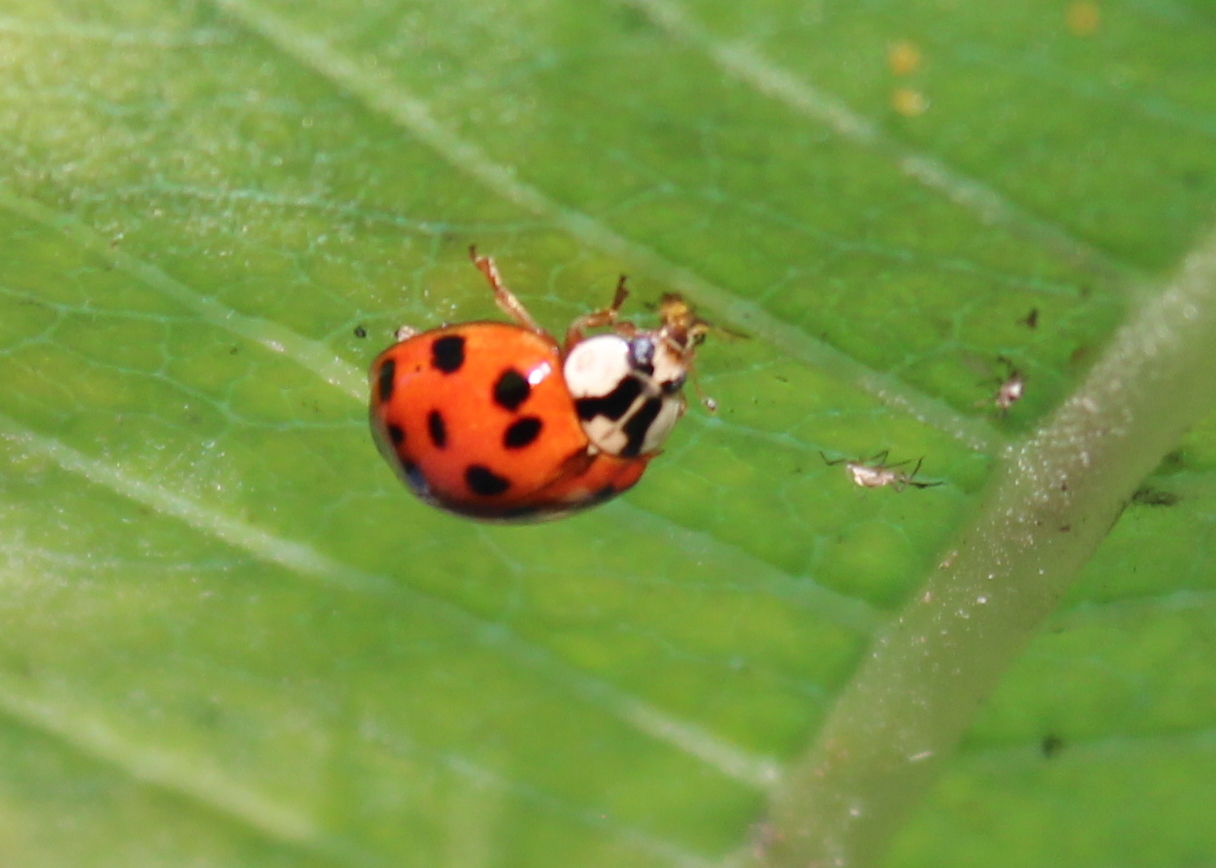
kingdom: Animalia
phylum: Arthropoda
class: Insecta
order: Coleoptera
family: Coccinellidae
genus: Harmonia
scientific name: Harmonia axyridis
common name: Harlequin ladybird
